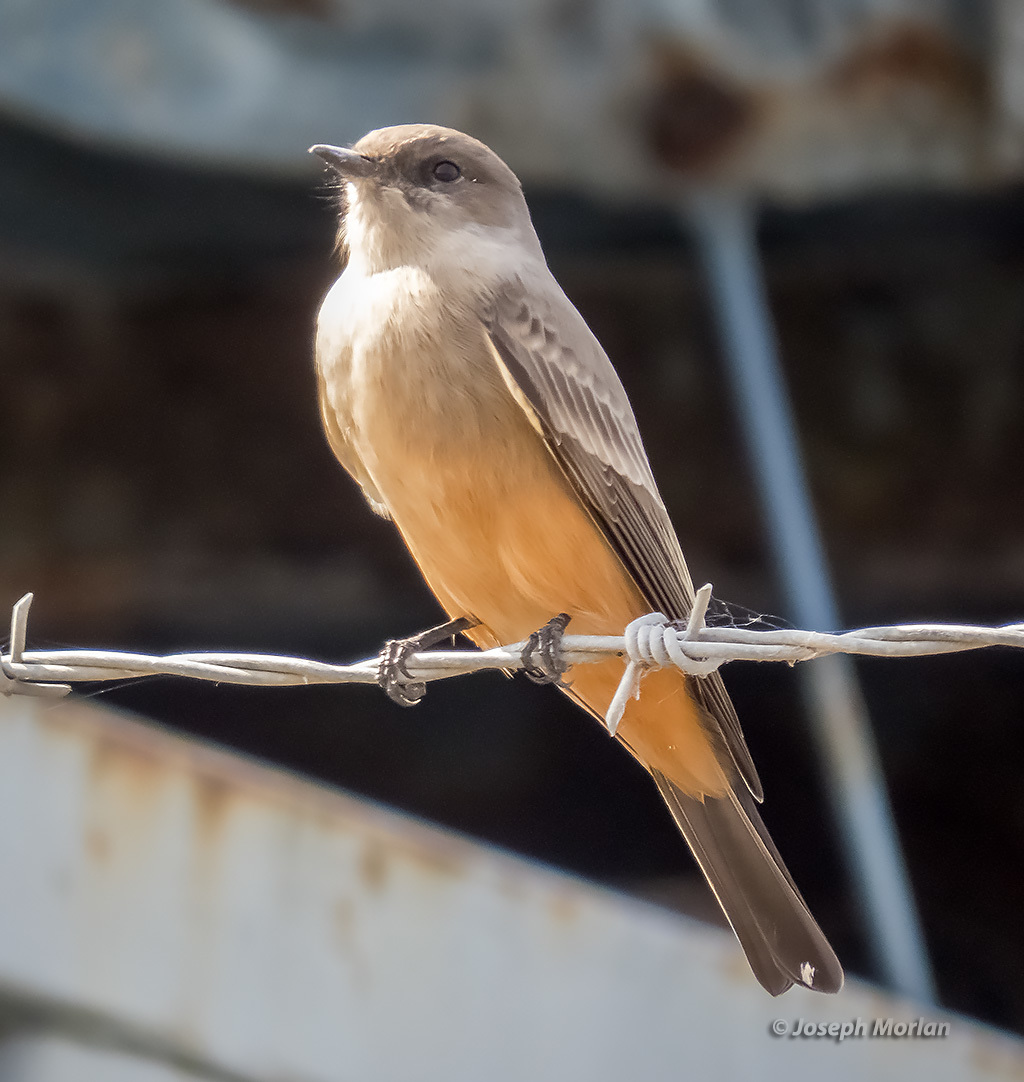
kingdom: Animalia
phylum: Chordata
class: Aves
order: Passeriformes
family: Tyrannidae
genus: Sayornis
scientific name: Sayornis saya
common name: Say's phoebe
